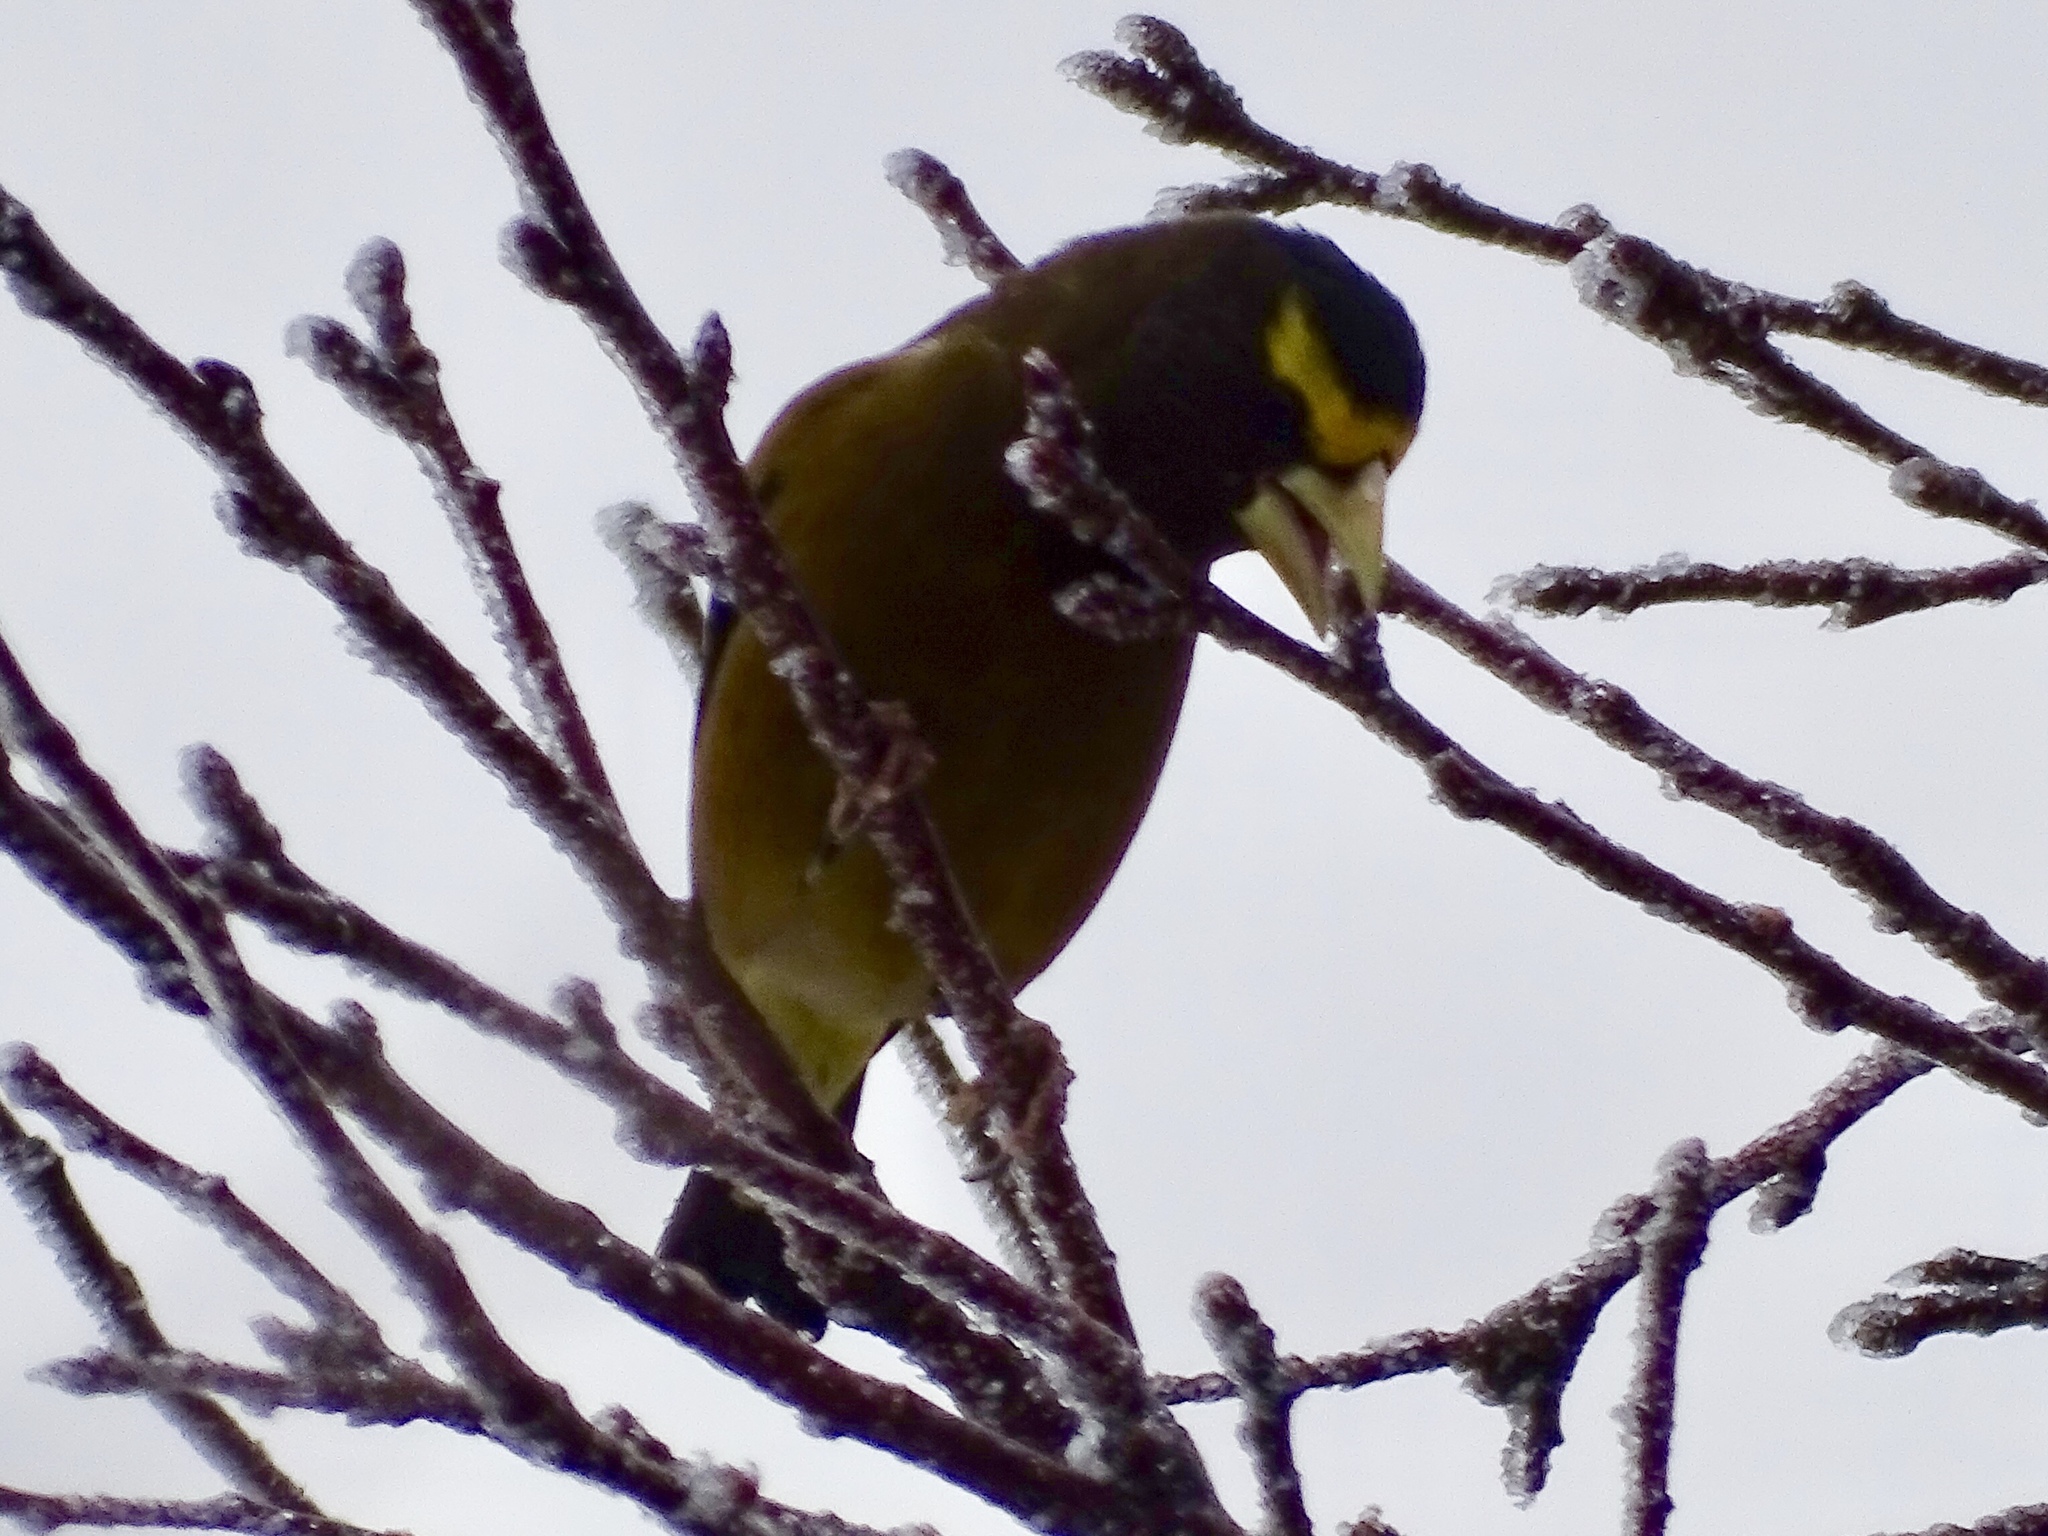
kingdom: Animalia
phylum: Chordata
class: Aves
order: Passeriformes
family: Fringillidae
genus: Hesperiphona
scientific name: Hesperiphona vespertina
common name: Evening grosbeak
